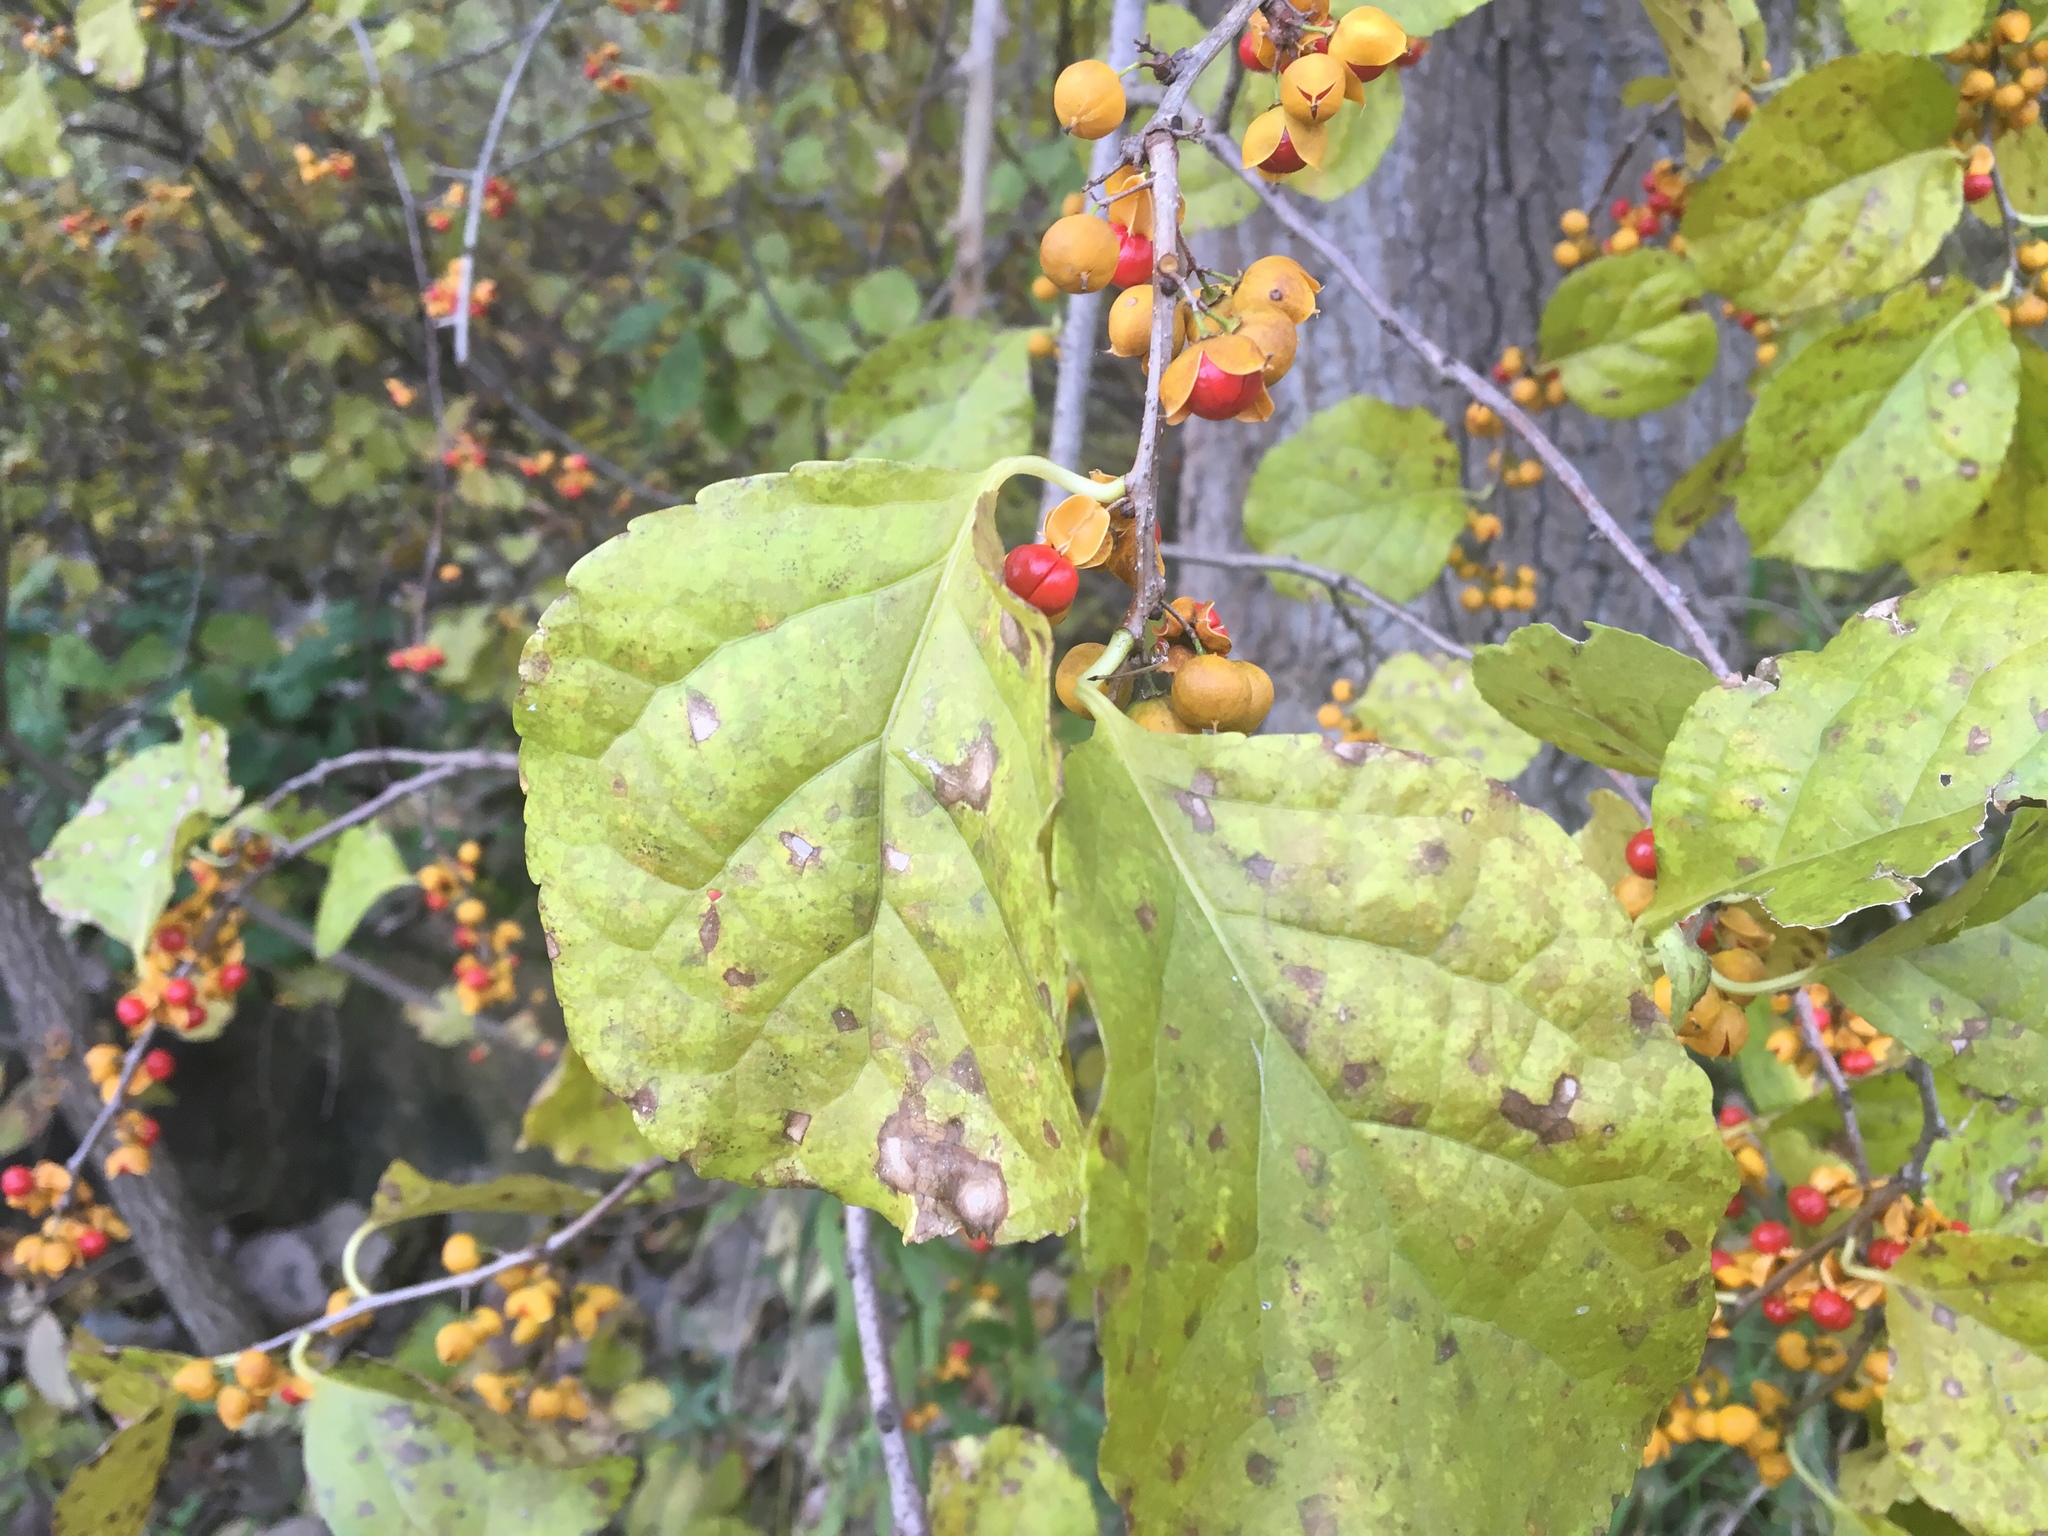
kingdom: Plantae
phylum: Tracheophyta
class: Magnoliopsida
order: Celastrales
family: Celastraceae
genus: Celastrus
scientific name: Celastrus orbiculatus
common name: Oriental bittersweet
